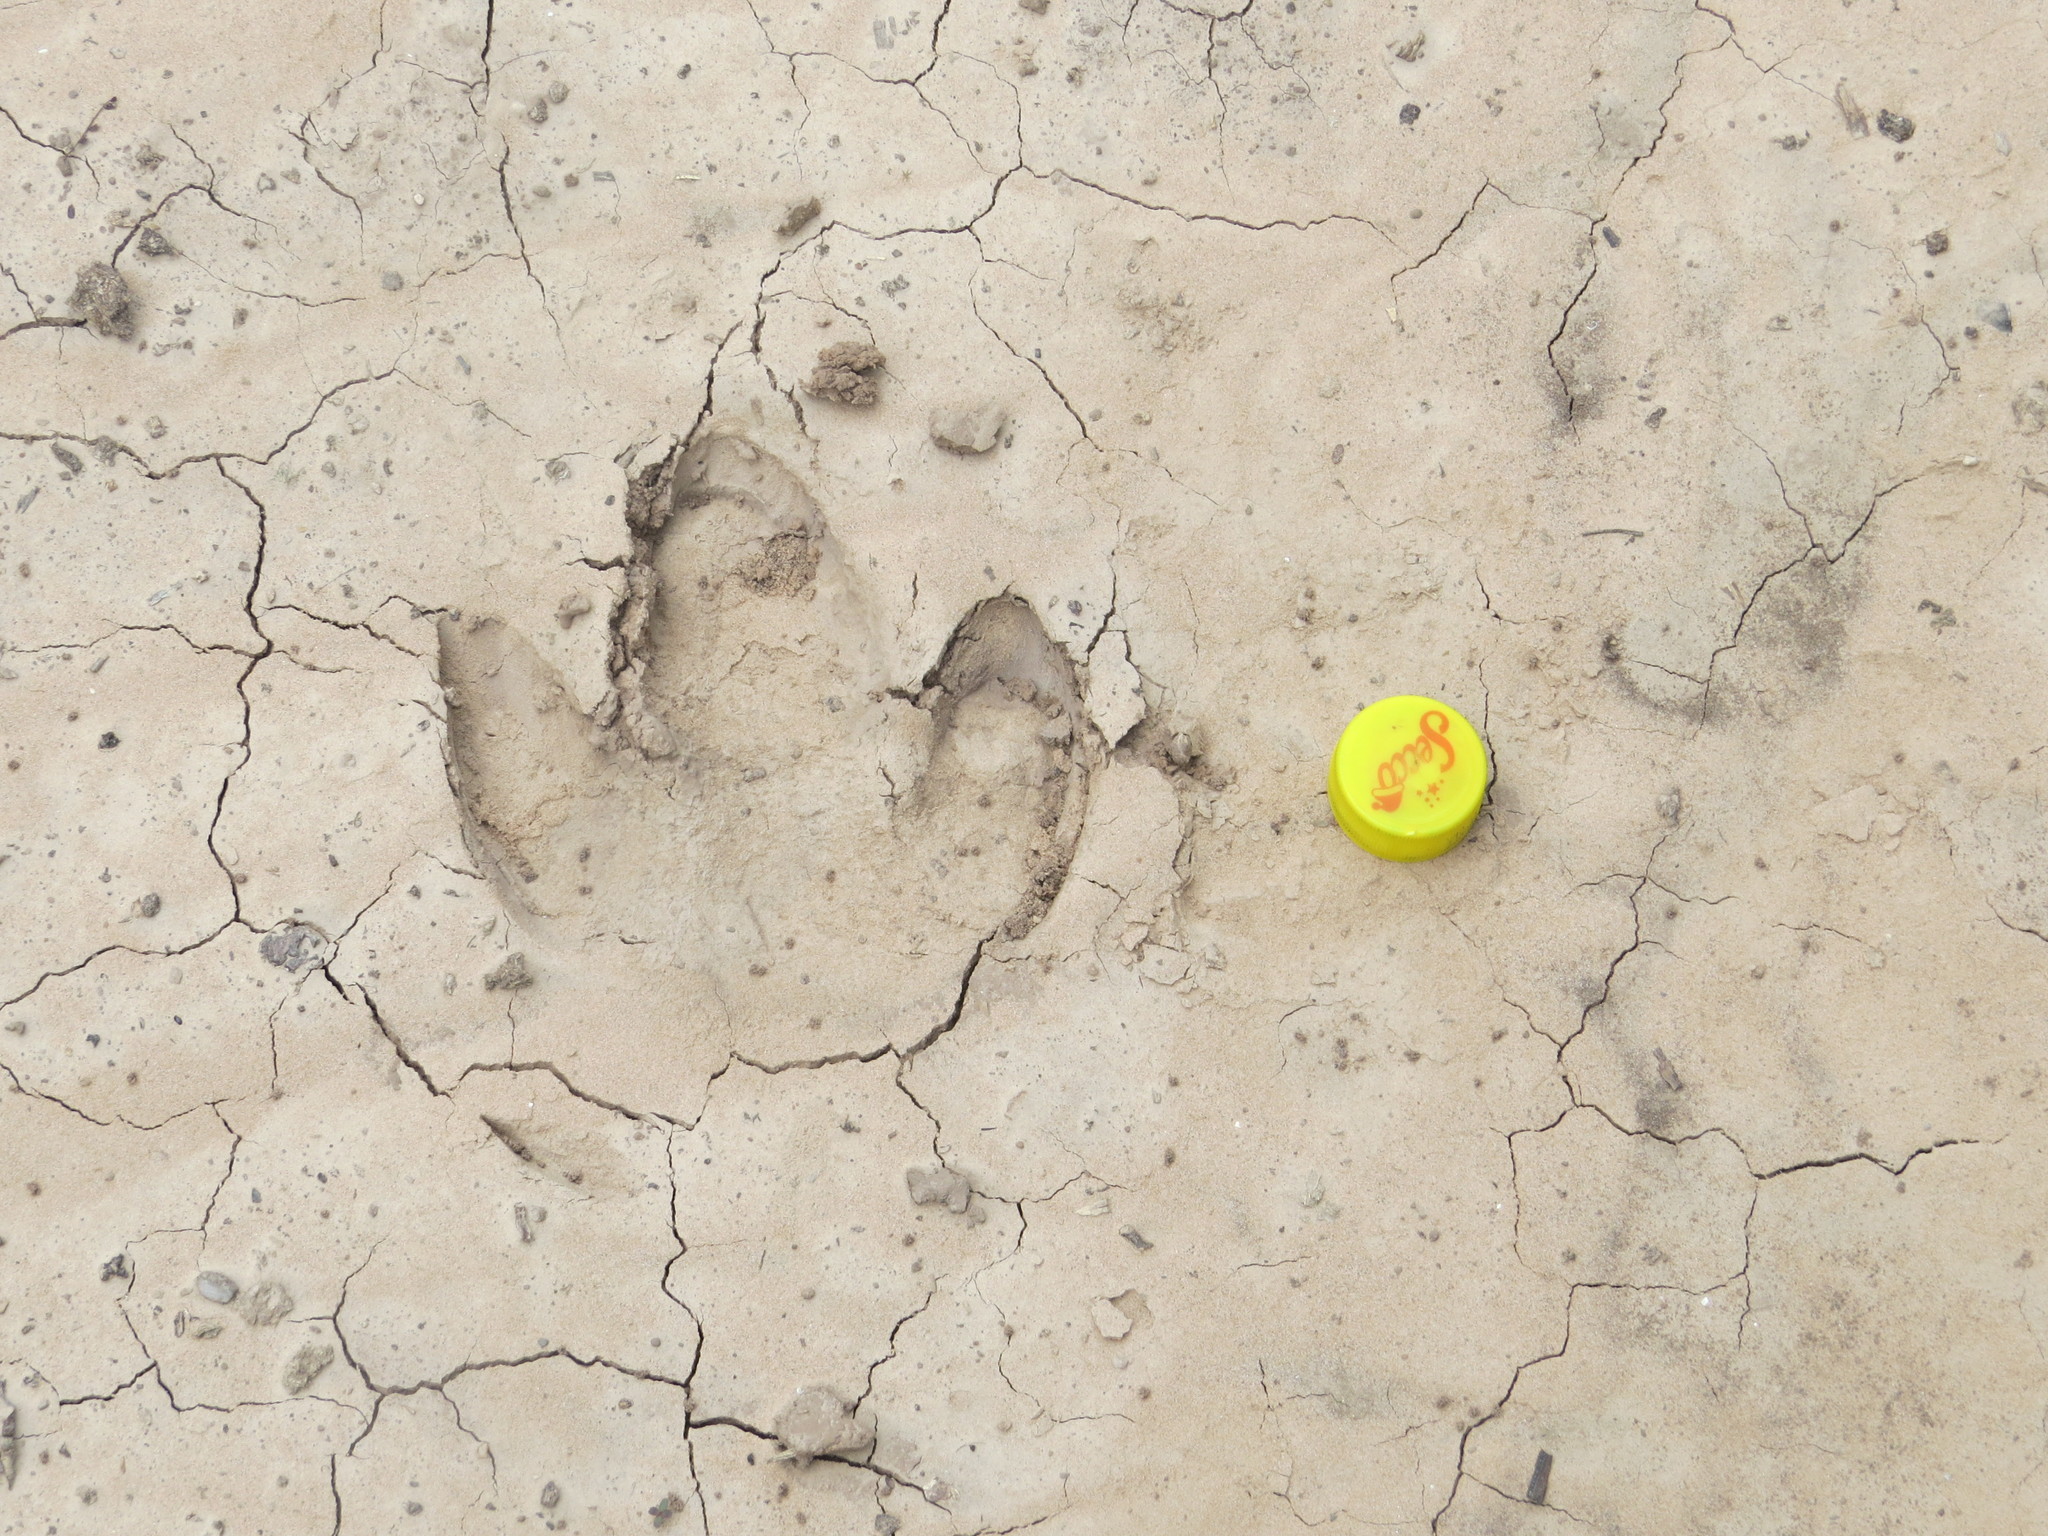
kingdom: Animalia
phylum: Chordata
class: Mammalia
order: Perissodactyla
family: Tapiridae
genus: Tapirus
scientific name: Tapirus terrestris
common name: Brazilian tapir
